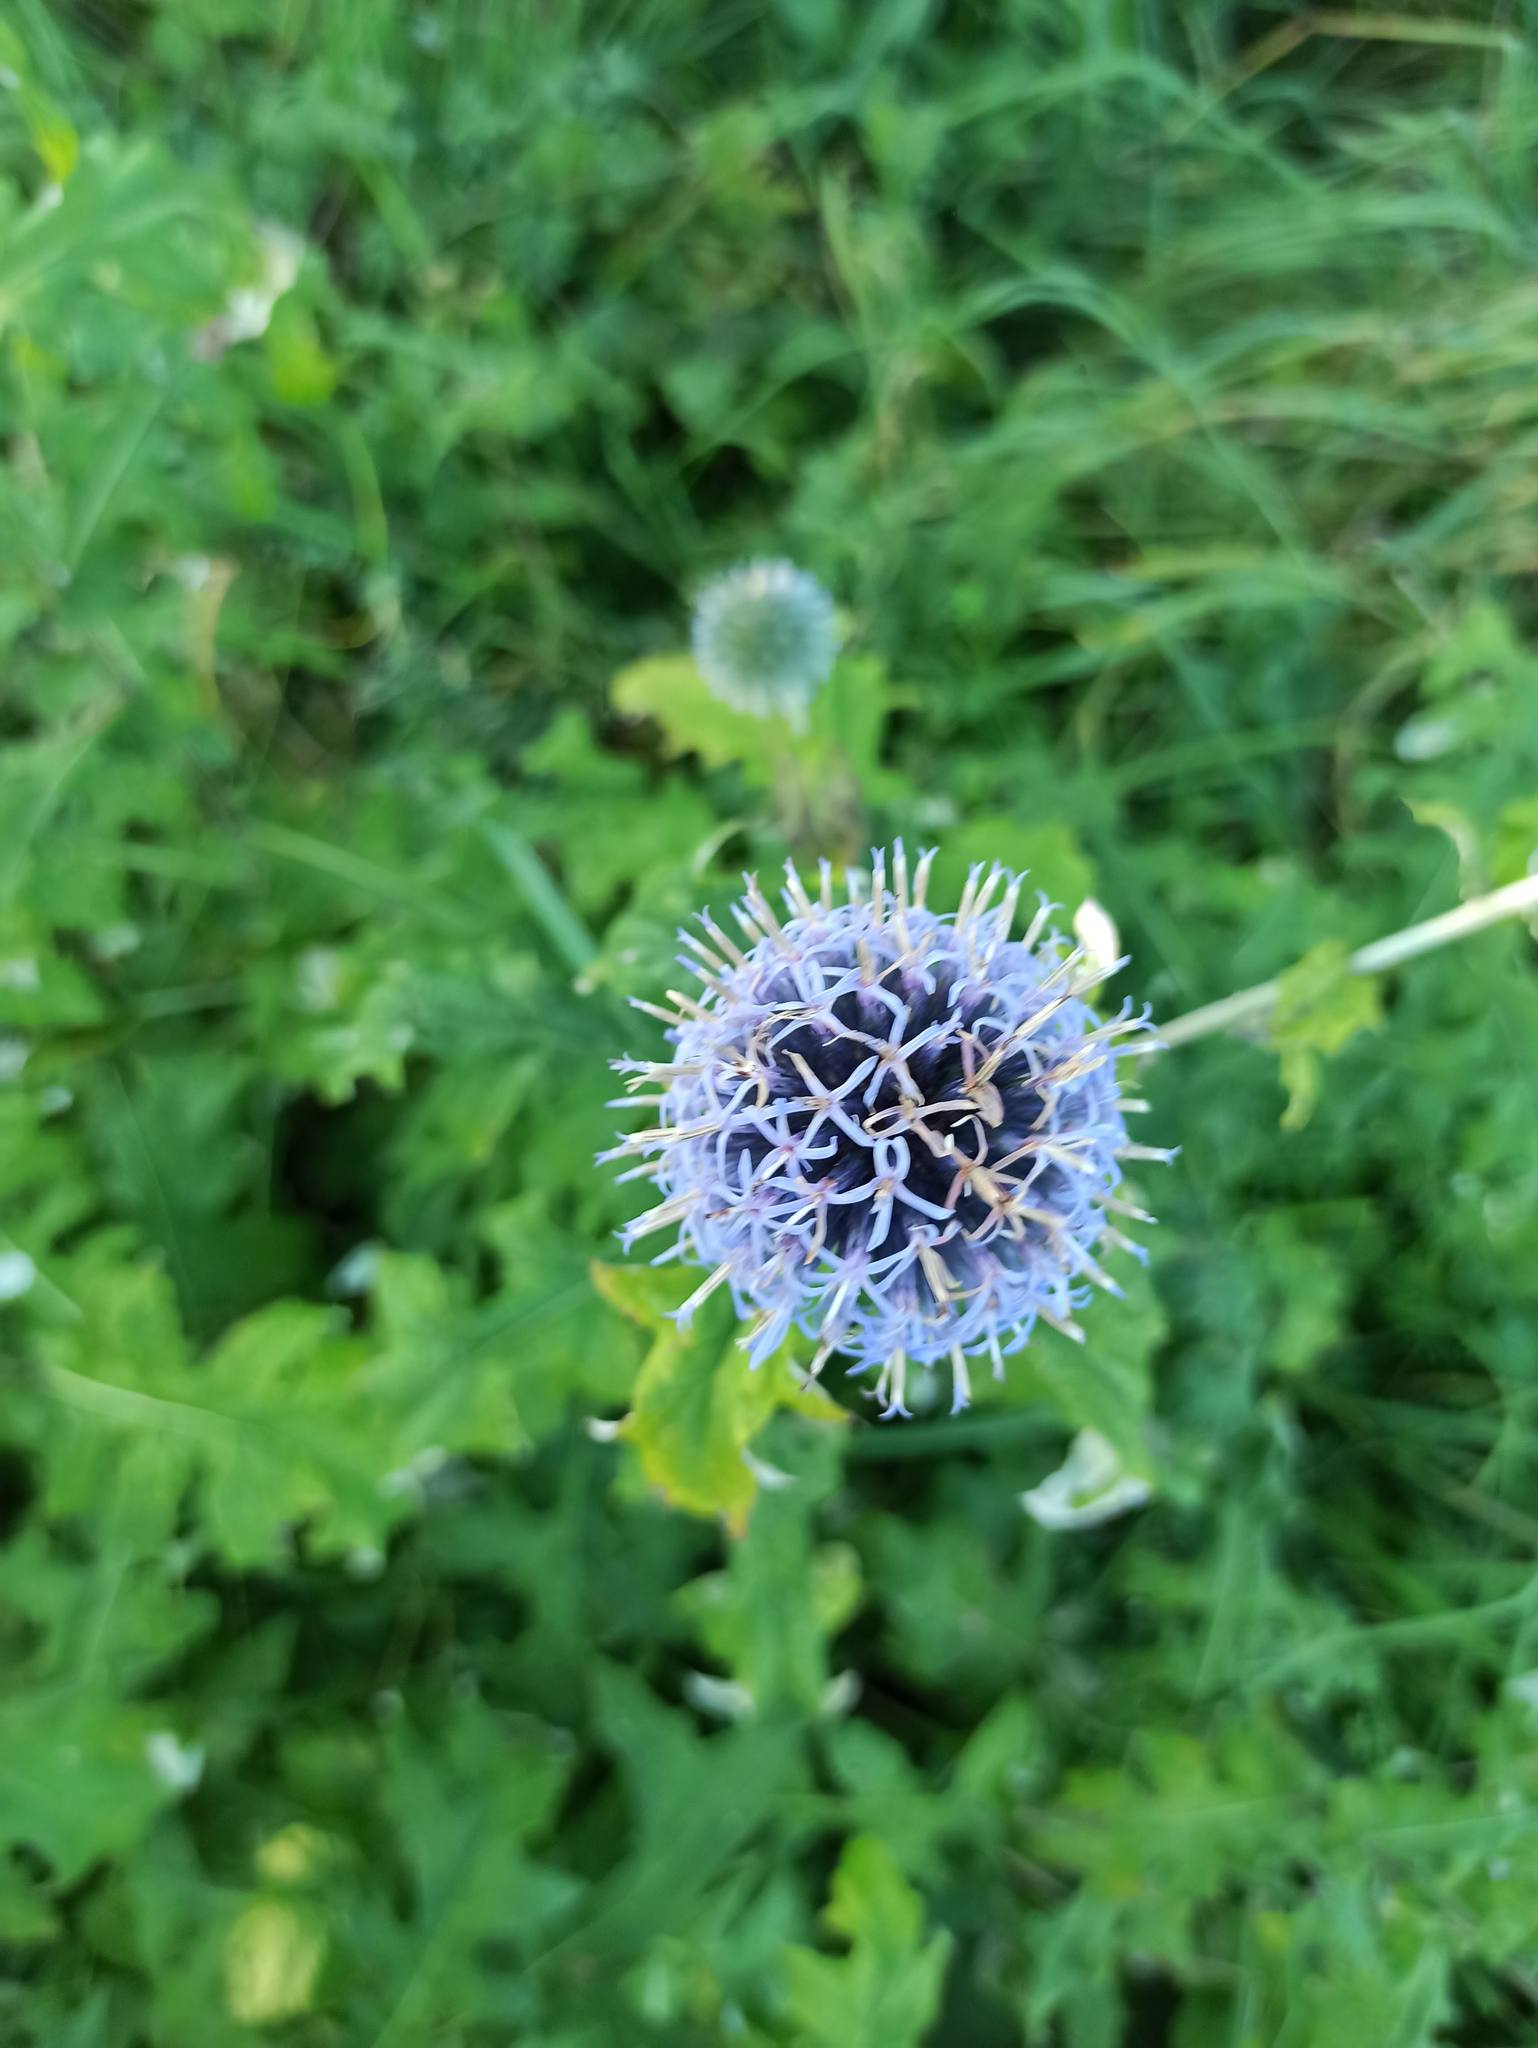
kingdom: Plantae
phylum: Tracheophyta
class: Magnoliopsida
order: Asterales
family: Asteraceae
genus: Echinops
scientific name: Echinops bannaticus
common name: Blue globe-thistle
